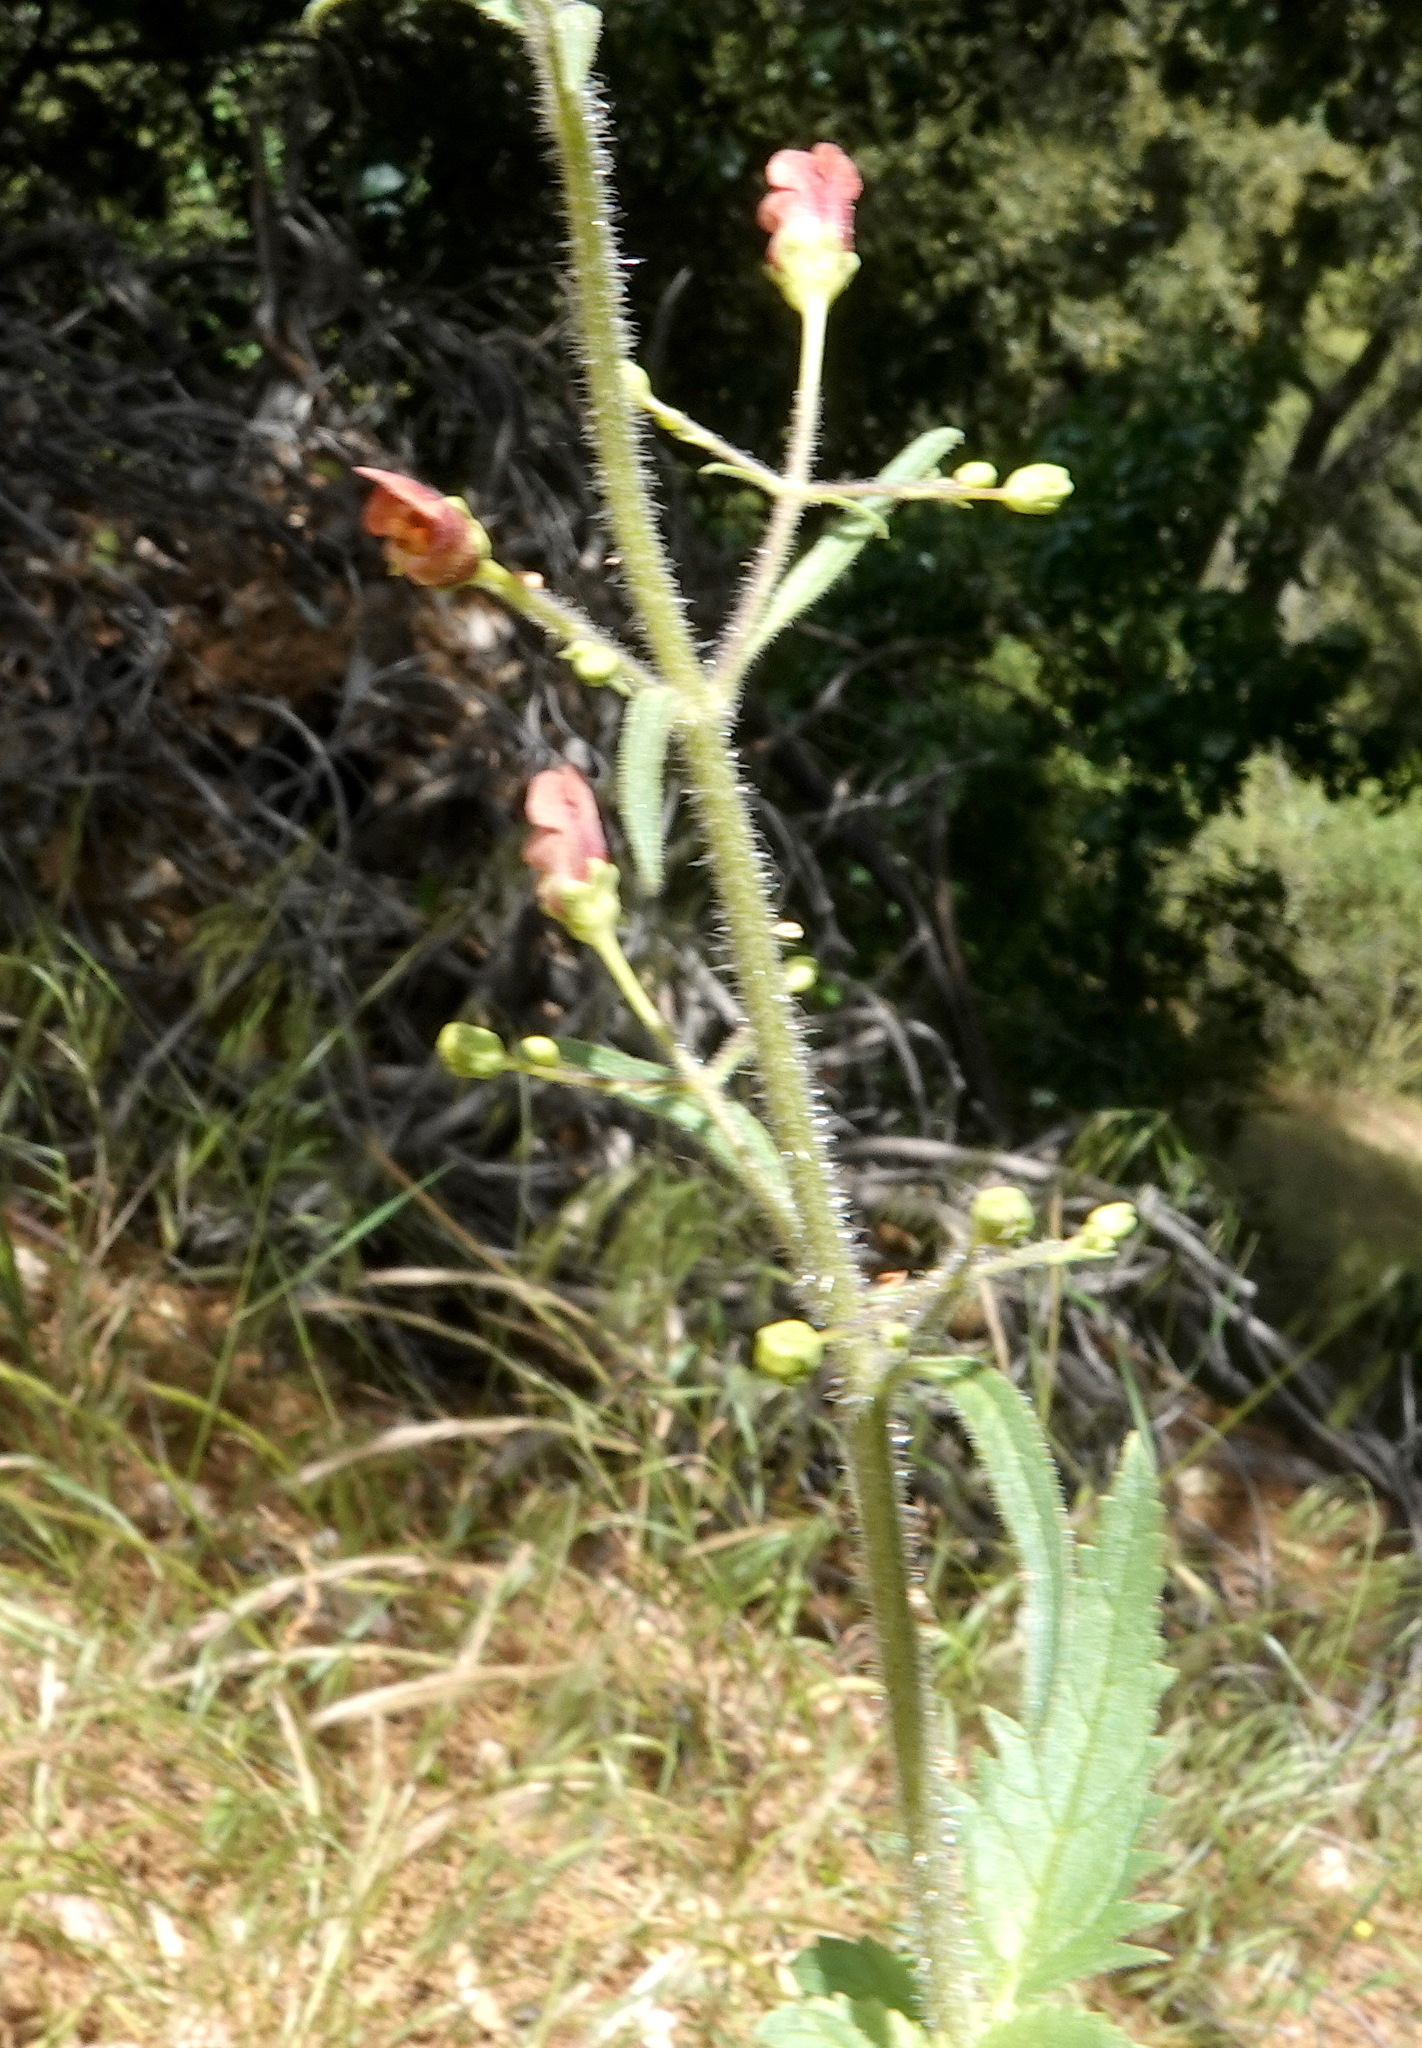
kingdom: Plantae
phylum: Tracheophyta
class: Magnoliopsida
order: Lamiales
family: Scrophulariaceae
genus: Scrophularia
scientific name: Scrophularia californica
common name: California figwort
